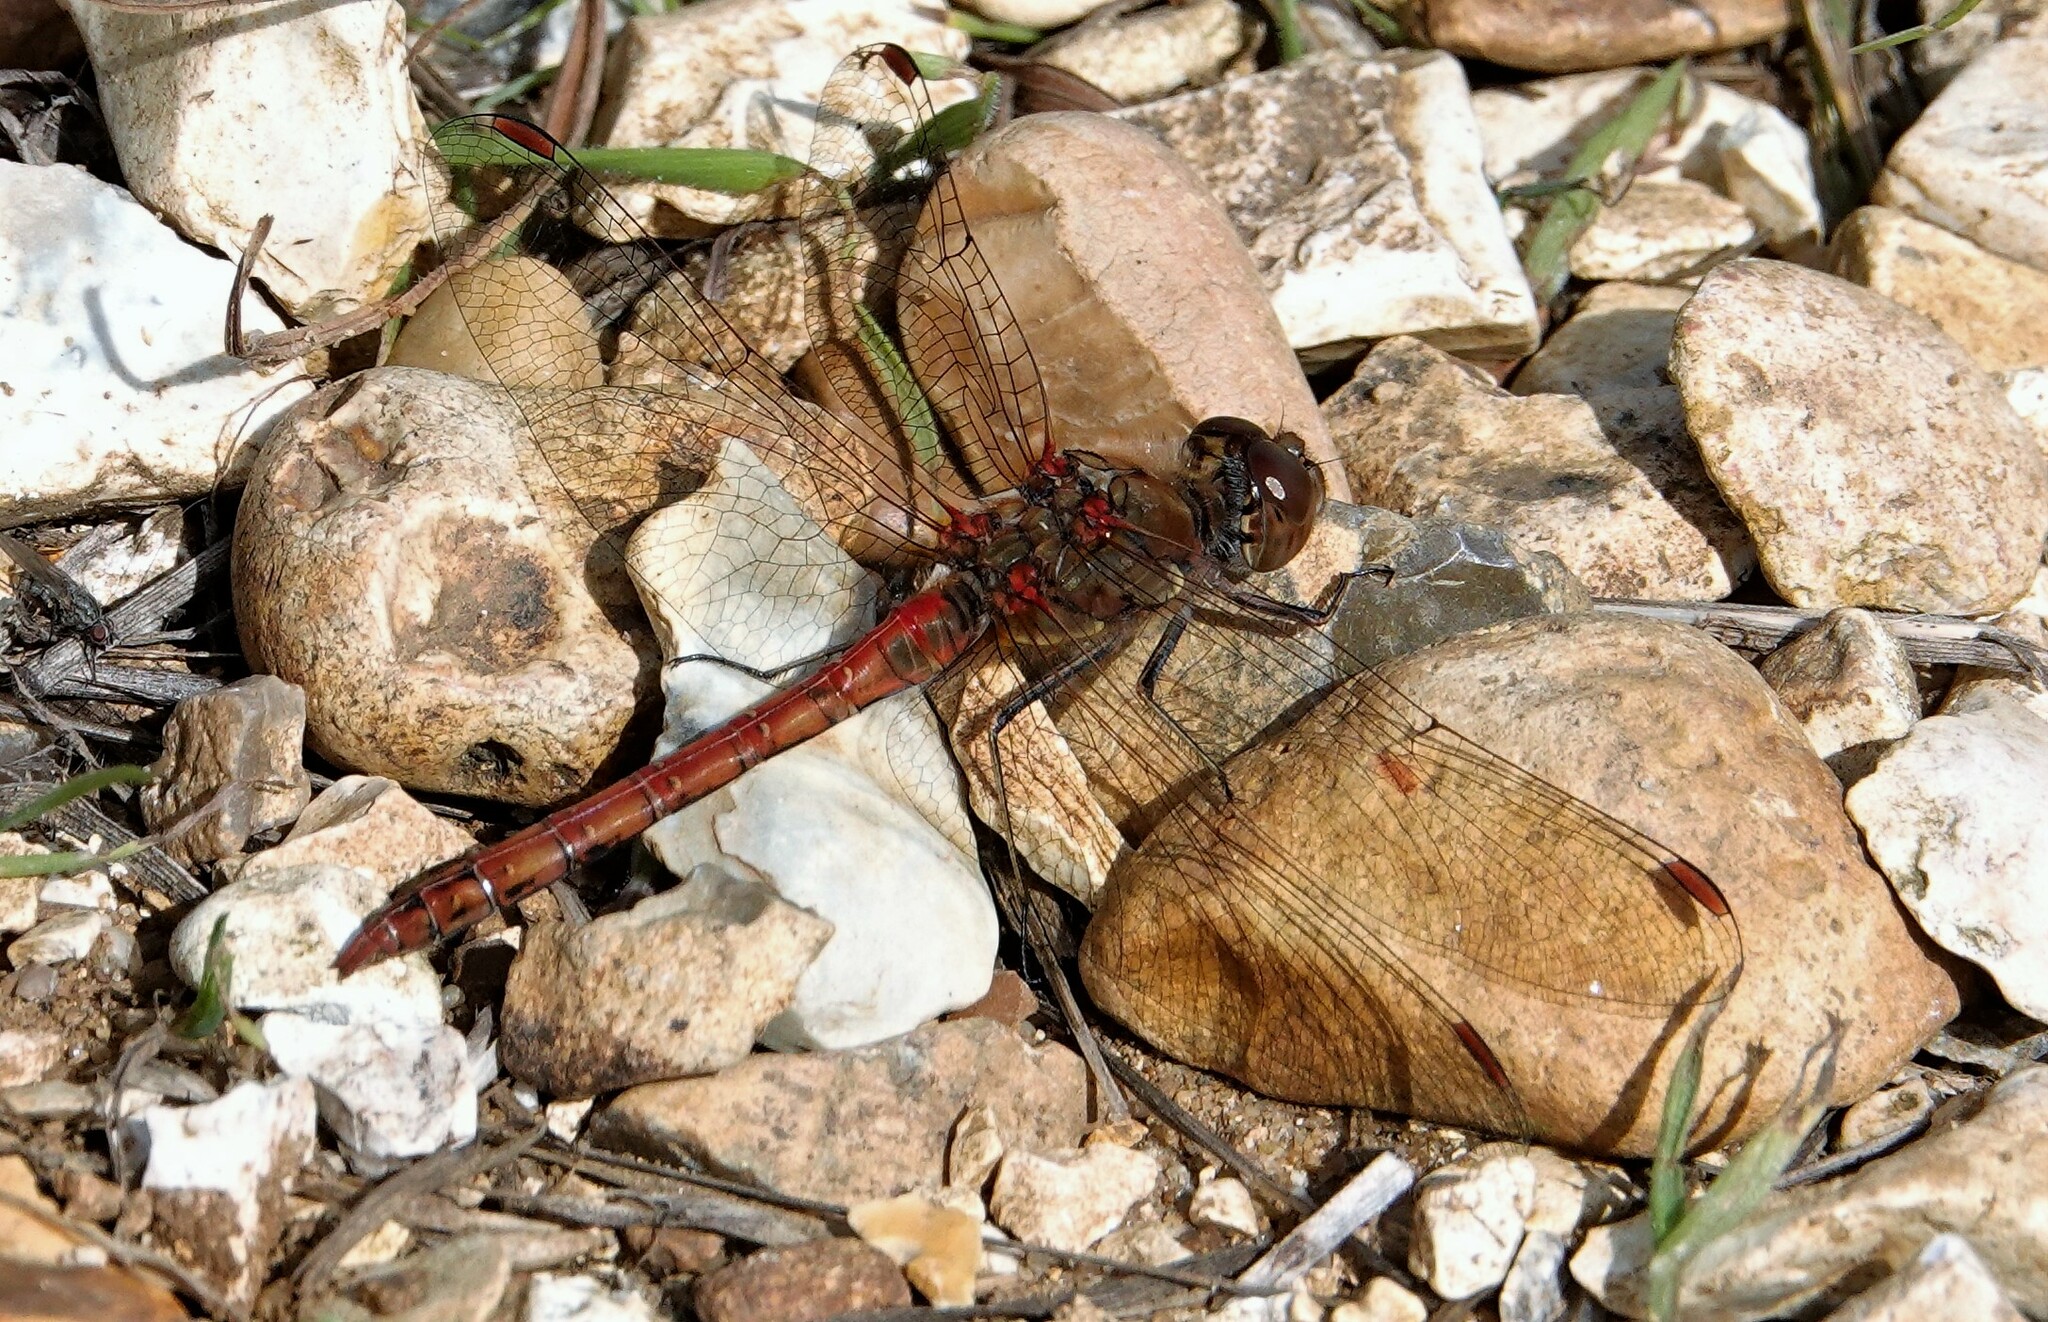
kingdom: Animalia
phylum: Arthropoda
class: Insecta
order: Odonata
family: Libellulidae
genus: Sympetrum
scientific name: Sympetrum striolatum
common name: Common darter
